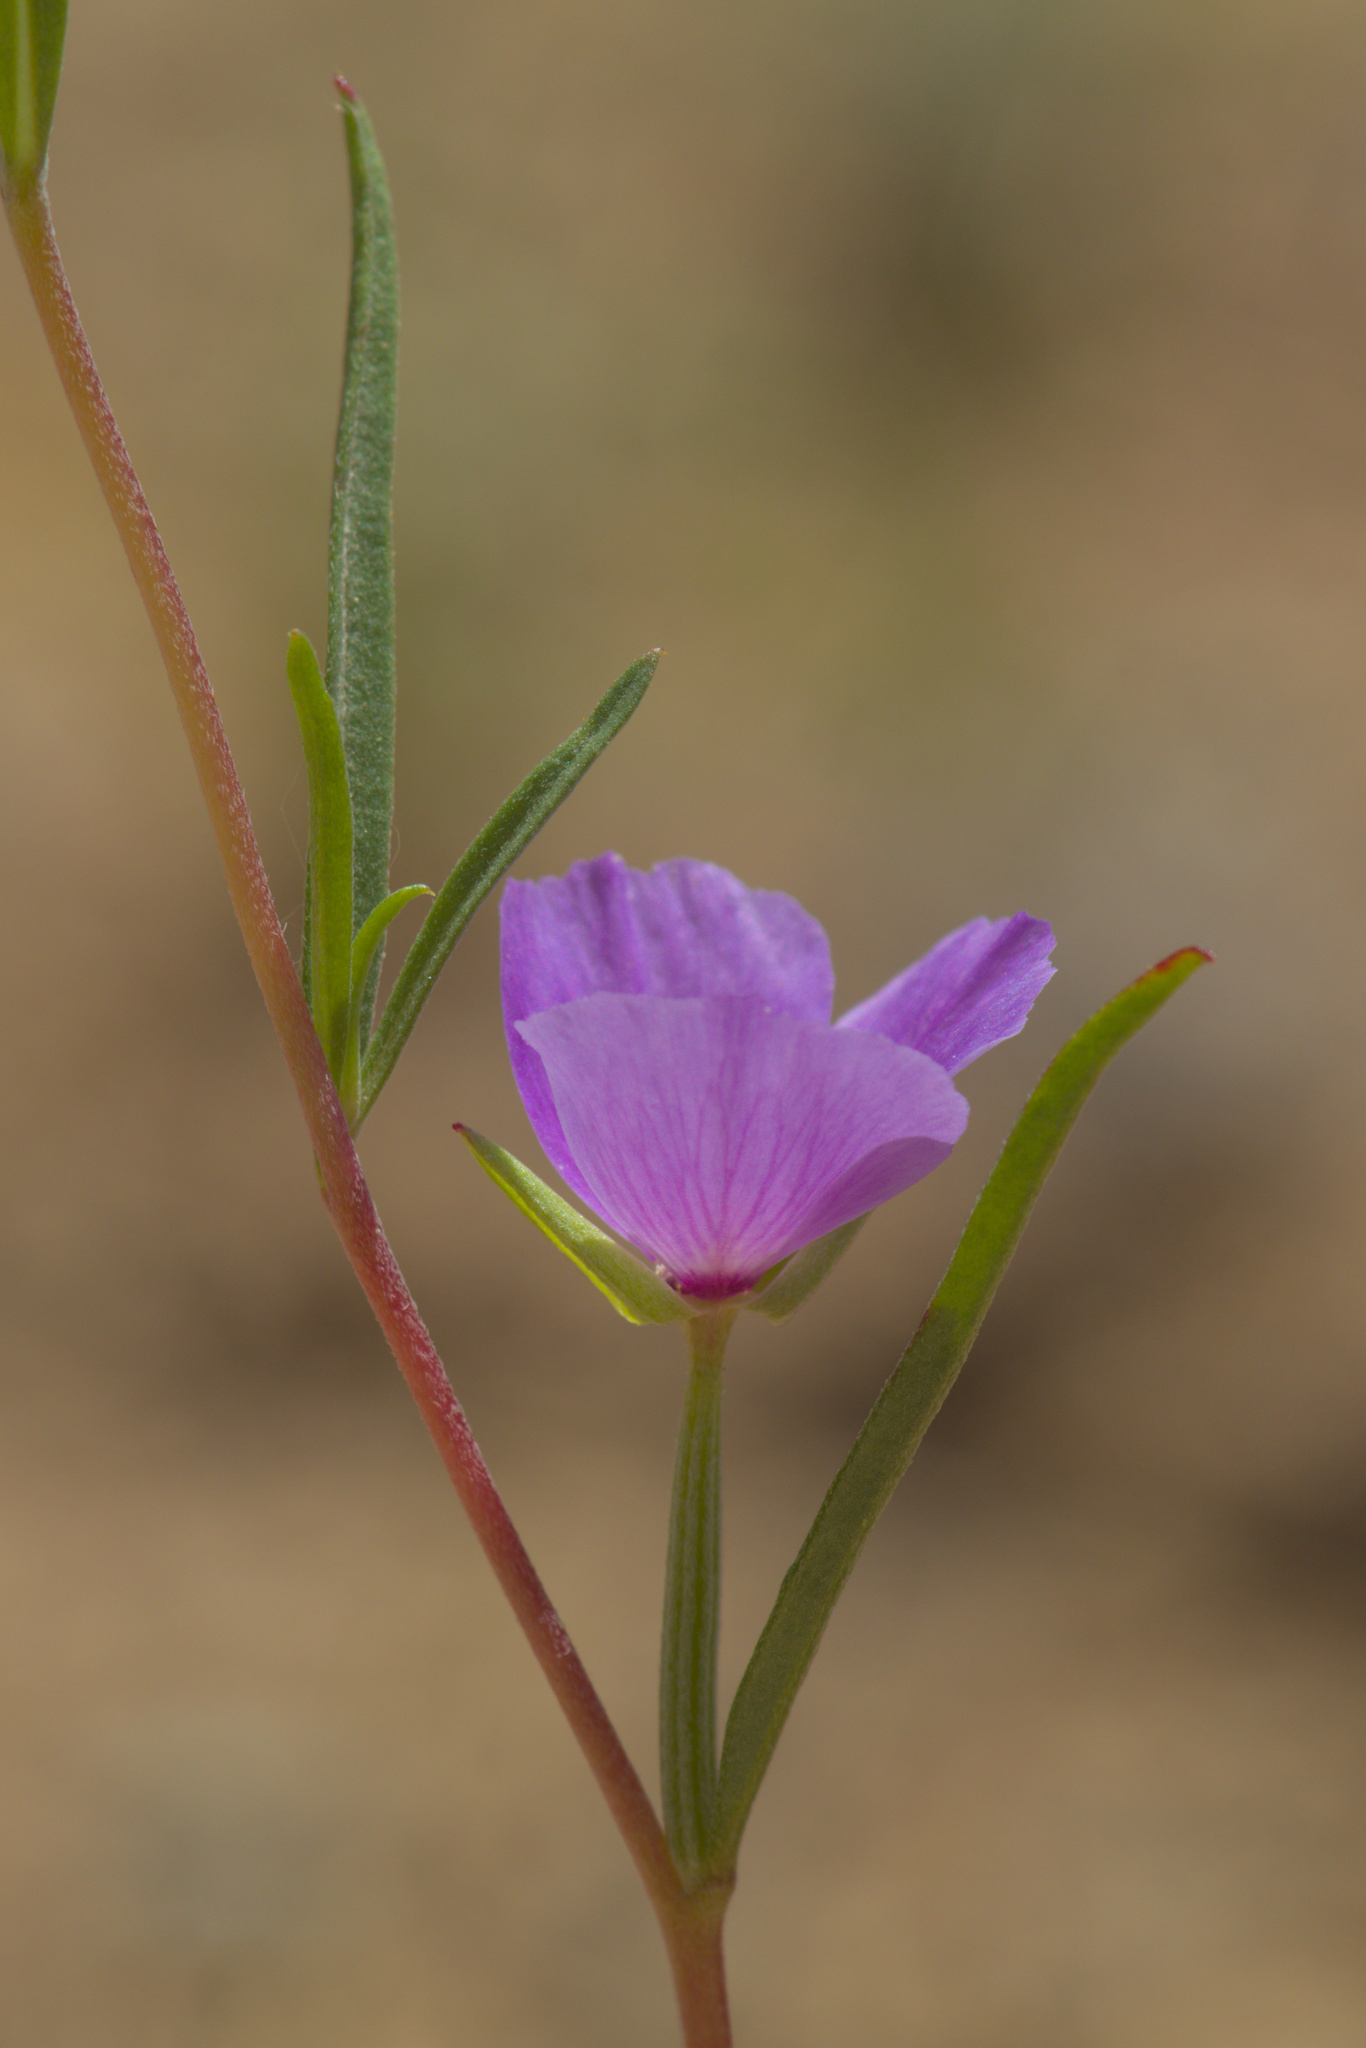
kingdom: Plantae
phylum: Tracheophyta
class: Magnoliopsida
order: Myrtales
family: Onagraceae
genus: Clarkia
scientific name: Clarkia tenella
